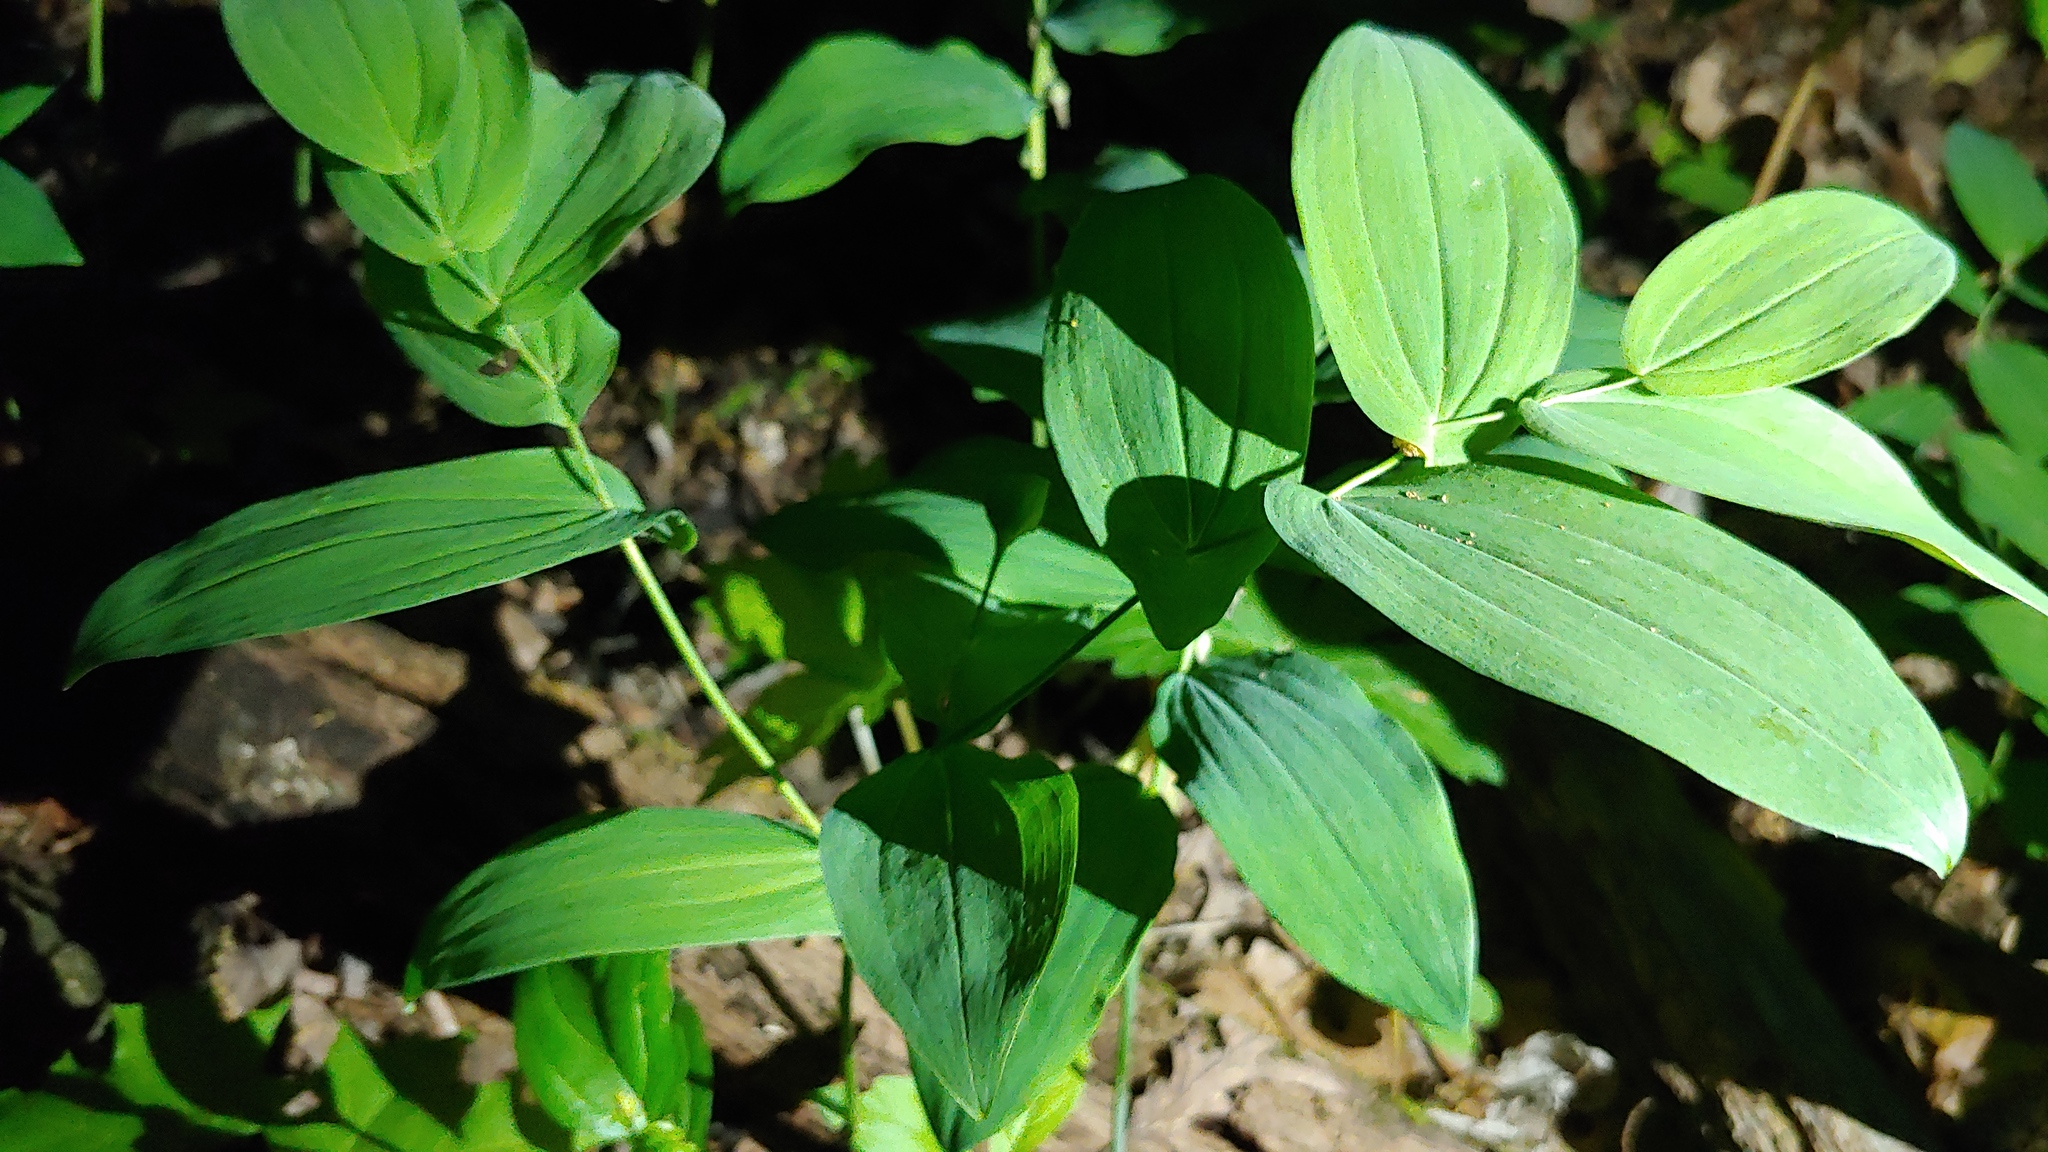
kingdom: Plantae
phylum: Tracheophyta
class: Liliopsida
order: Liliales
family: Colchicaceae
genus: Uvularia
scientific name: Uvularia grandiflora
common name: Bellwort
